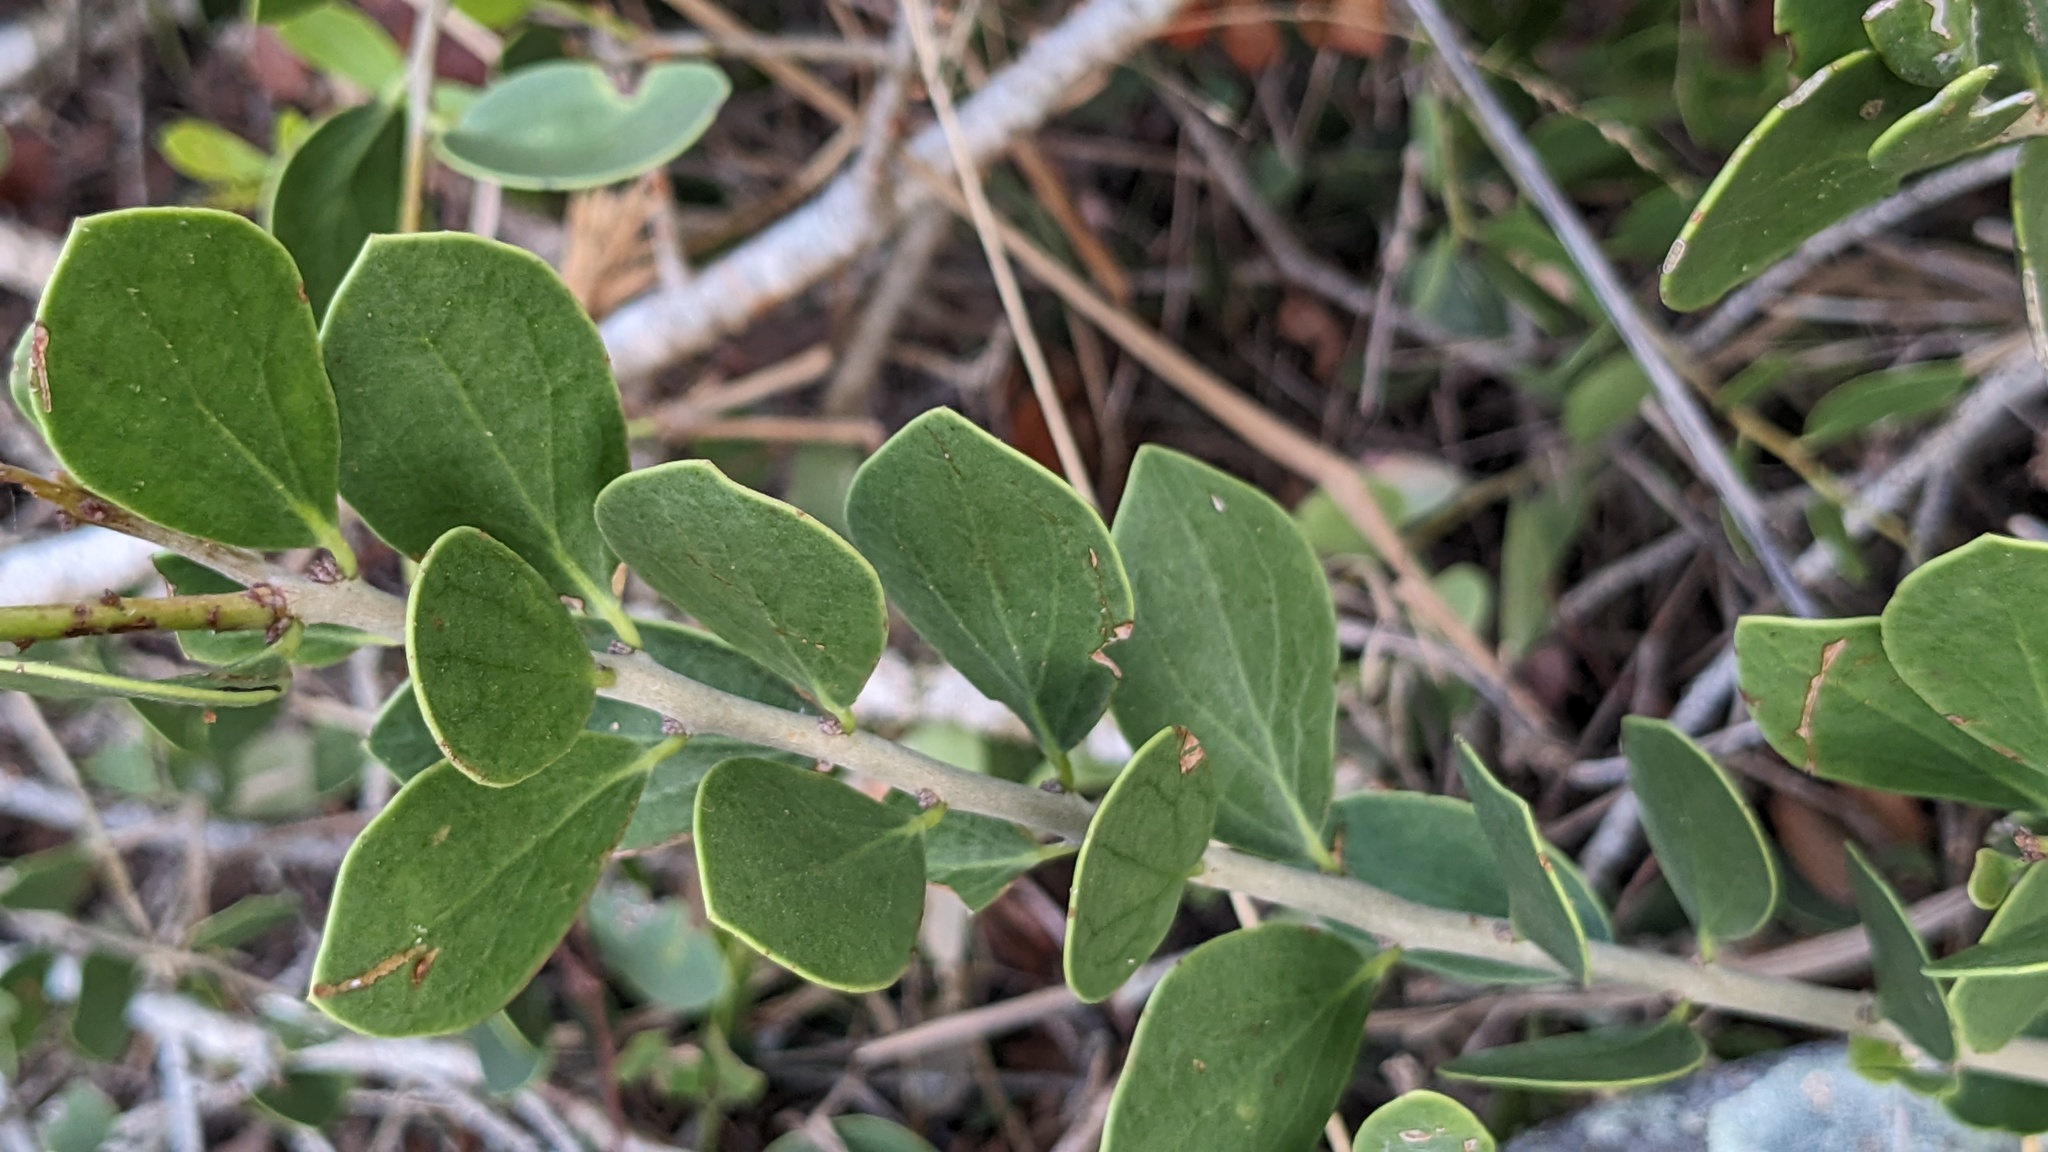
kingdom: Plantae
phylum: Tracheophyta
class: Magnoliopsida
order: Celastrales
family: Celastraceae
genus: Tricerma
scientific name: Tricerma phyllanthoides
